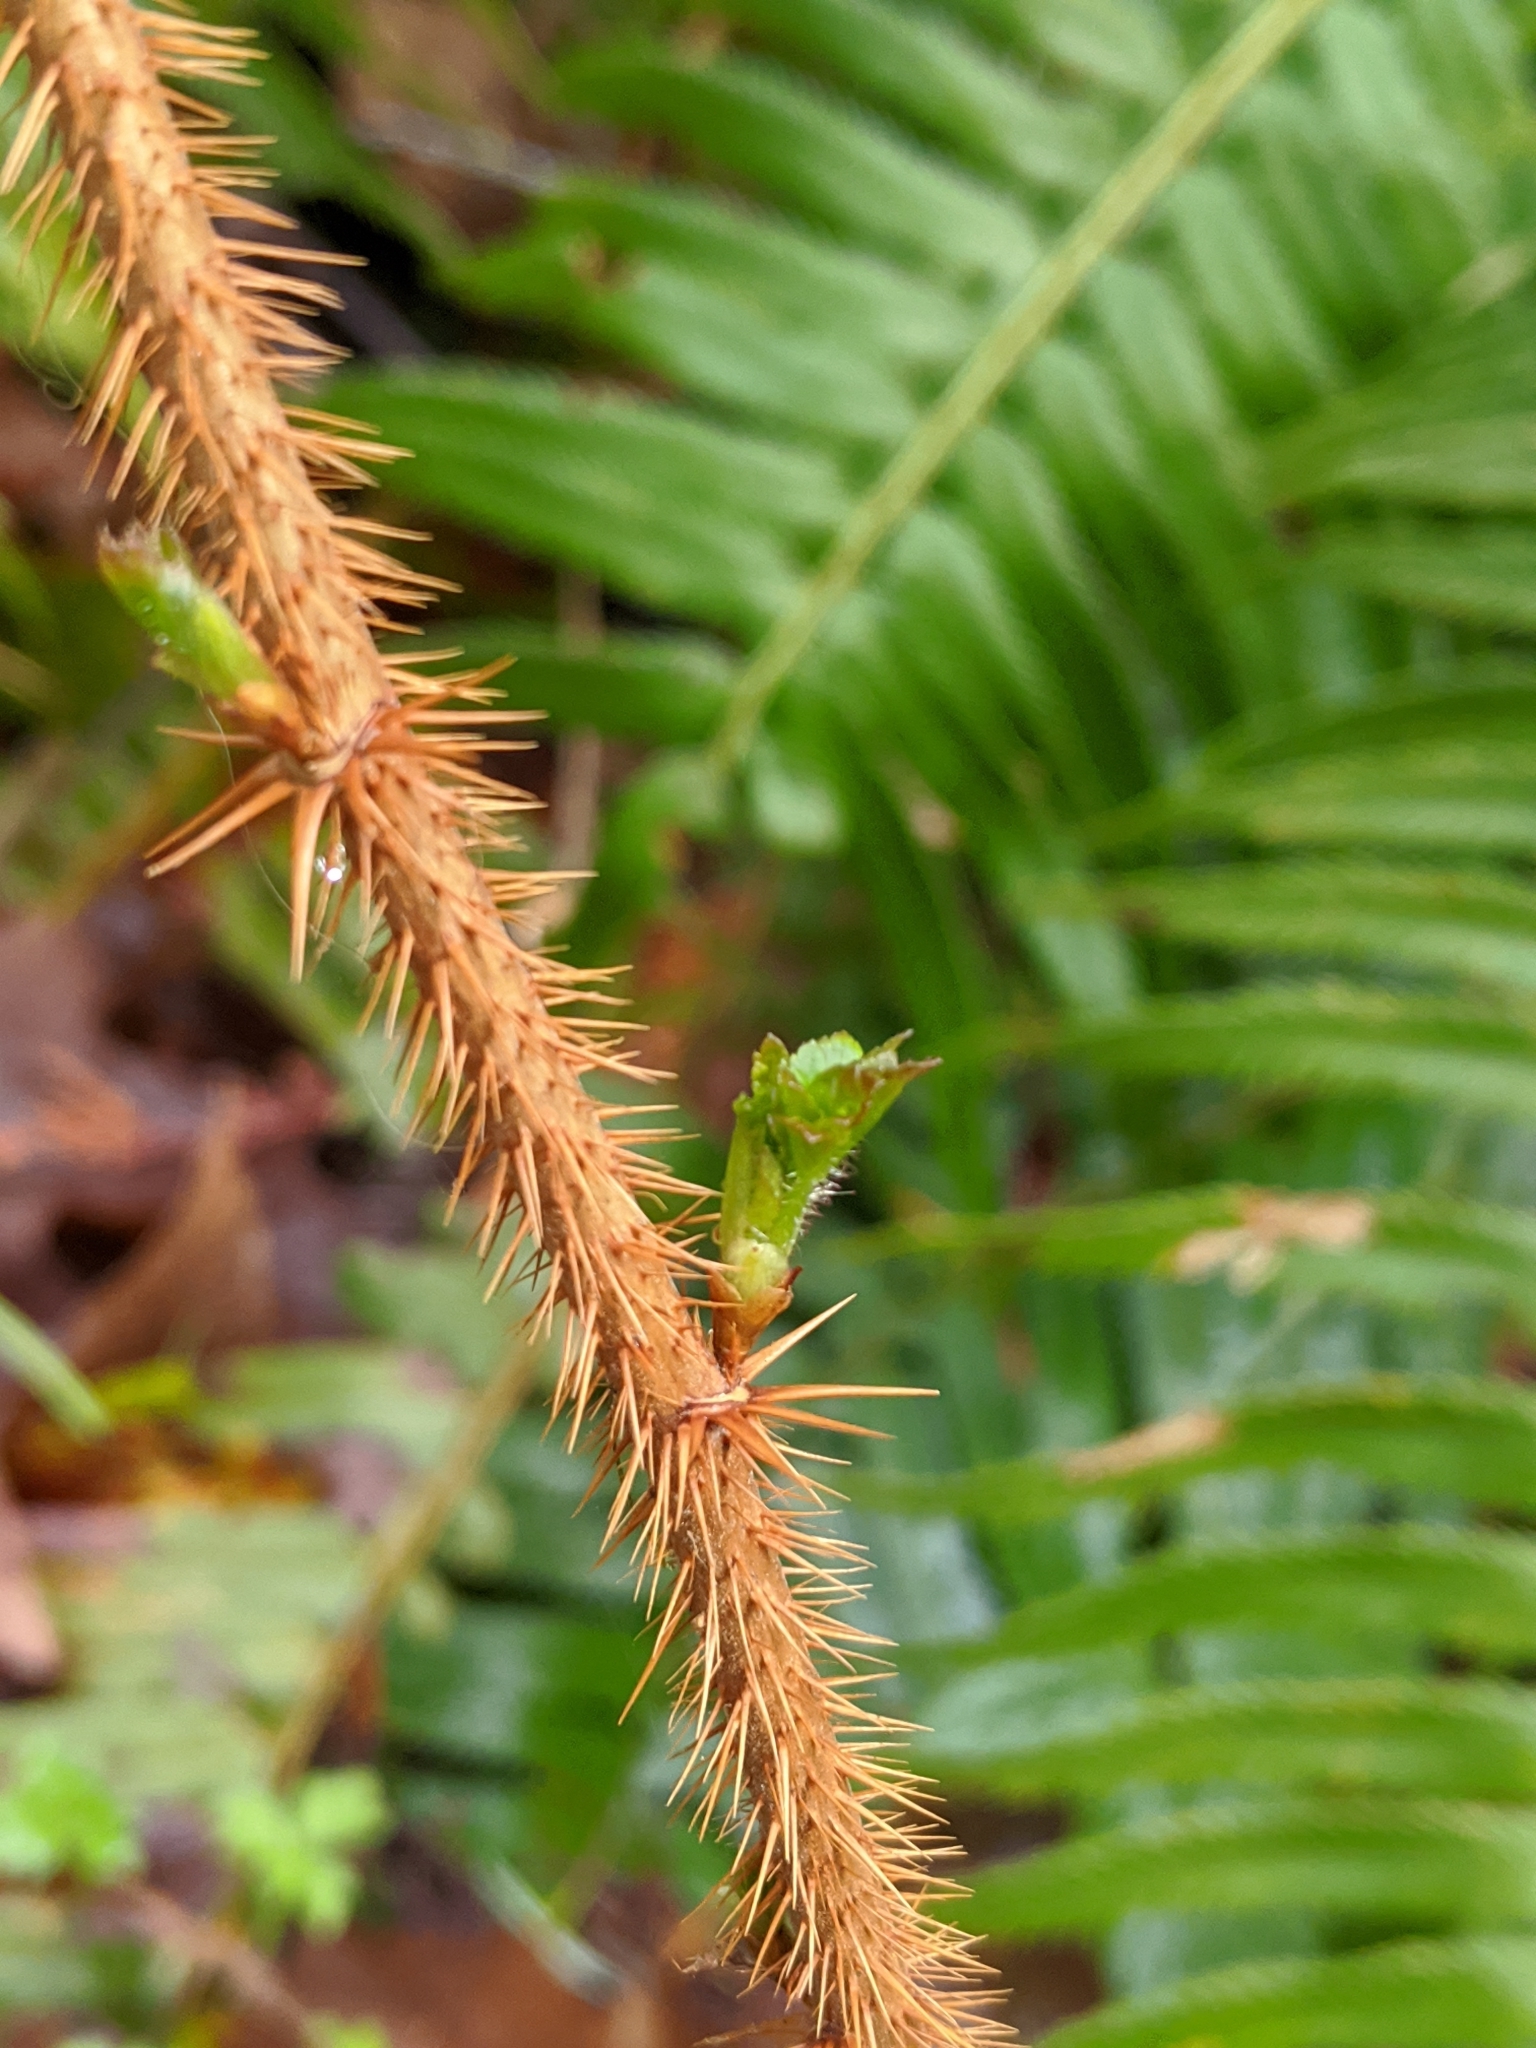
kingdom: Plantae
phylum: Tracheophyta
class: Magnoliopsida
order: Saxifragales
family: Grossulariaceae
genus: Ribes
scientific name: Ribes lacustre
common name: Black gooseberry
